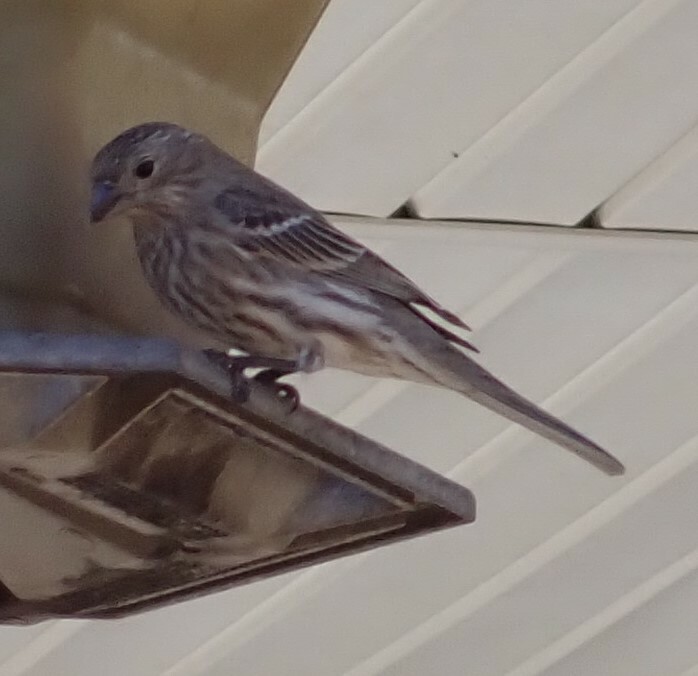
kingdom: Animalia
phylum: Chordata
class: Aves
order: Passeriformes
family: Fringillidae
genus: Haemorhous
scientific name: Haemorhous mexicanus
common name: House finch
